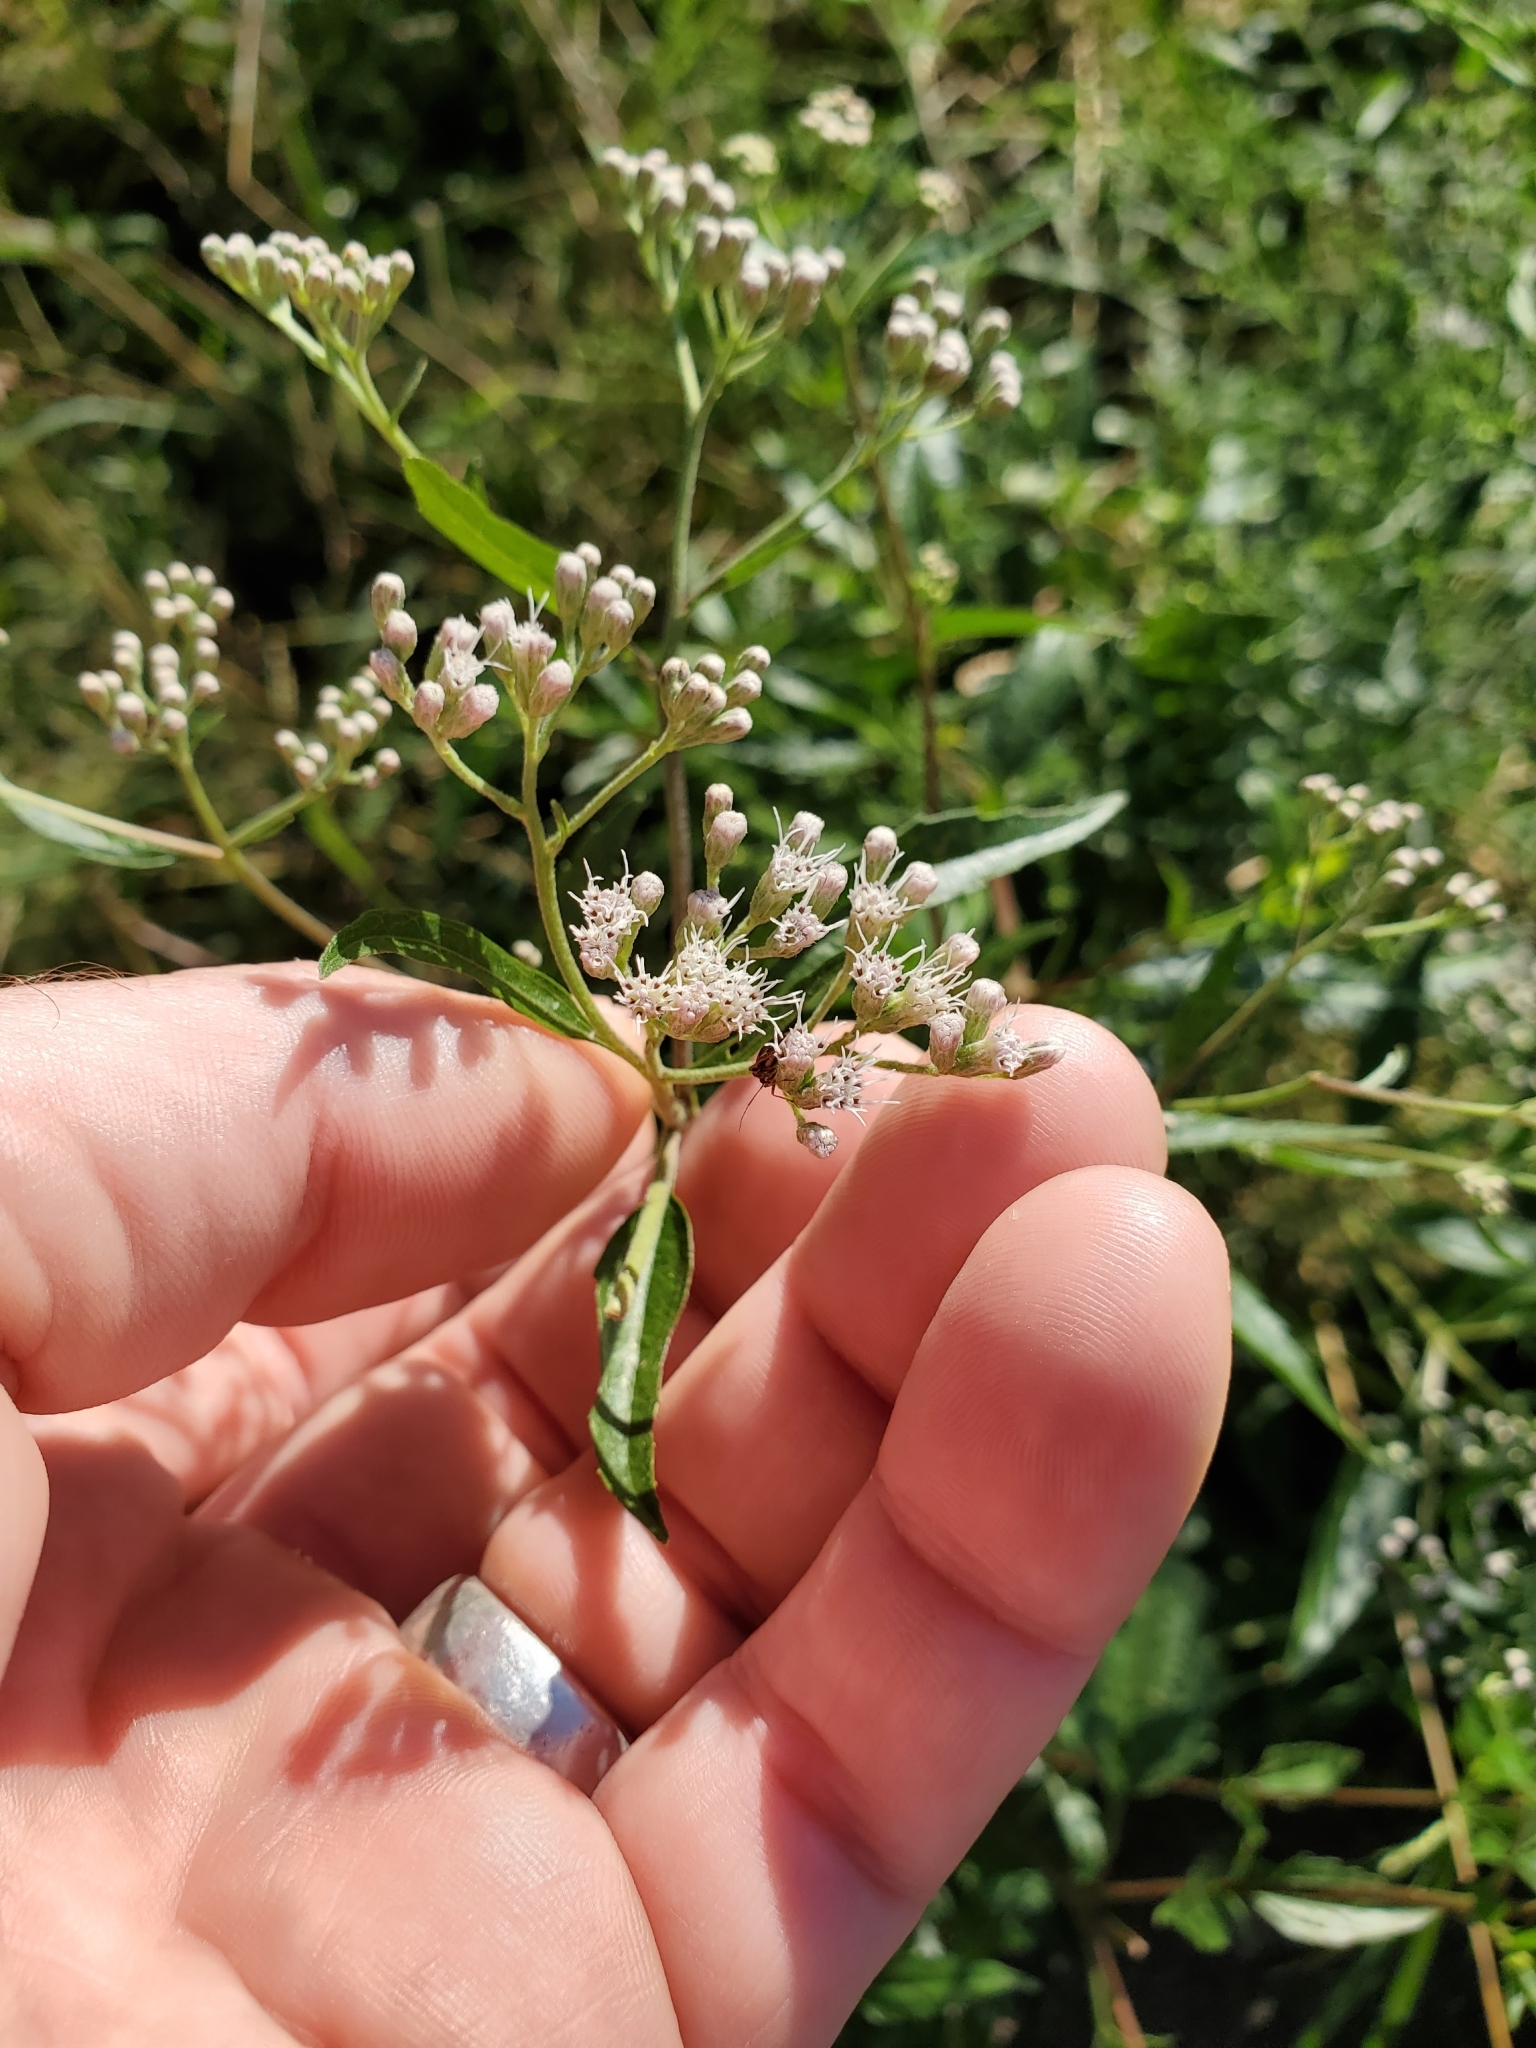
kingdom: Plantae
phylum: Tracheophyta
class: Magnoliopsida
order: Asterales
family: Asteraceae
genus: Eupatorium
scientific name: Eupatorium serotinum
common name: Late boneset
